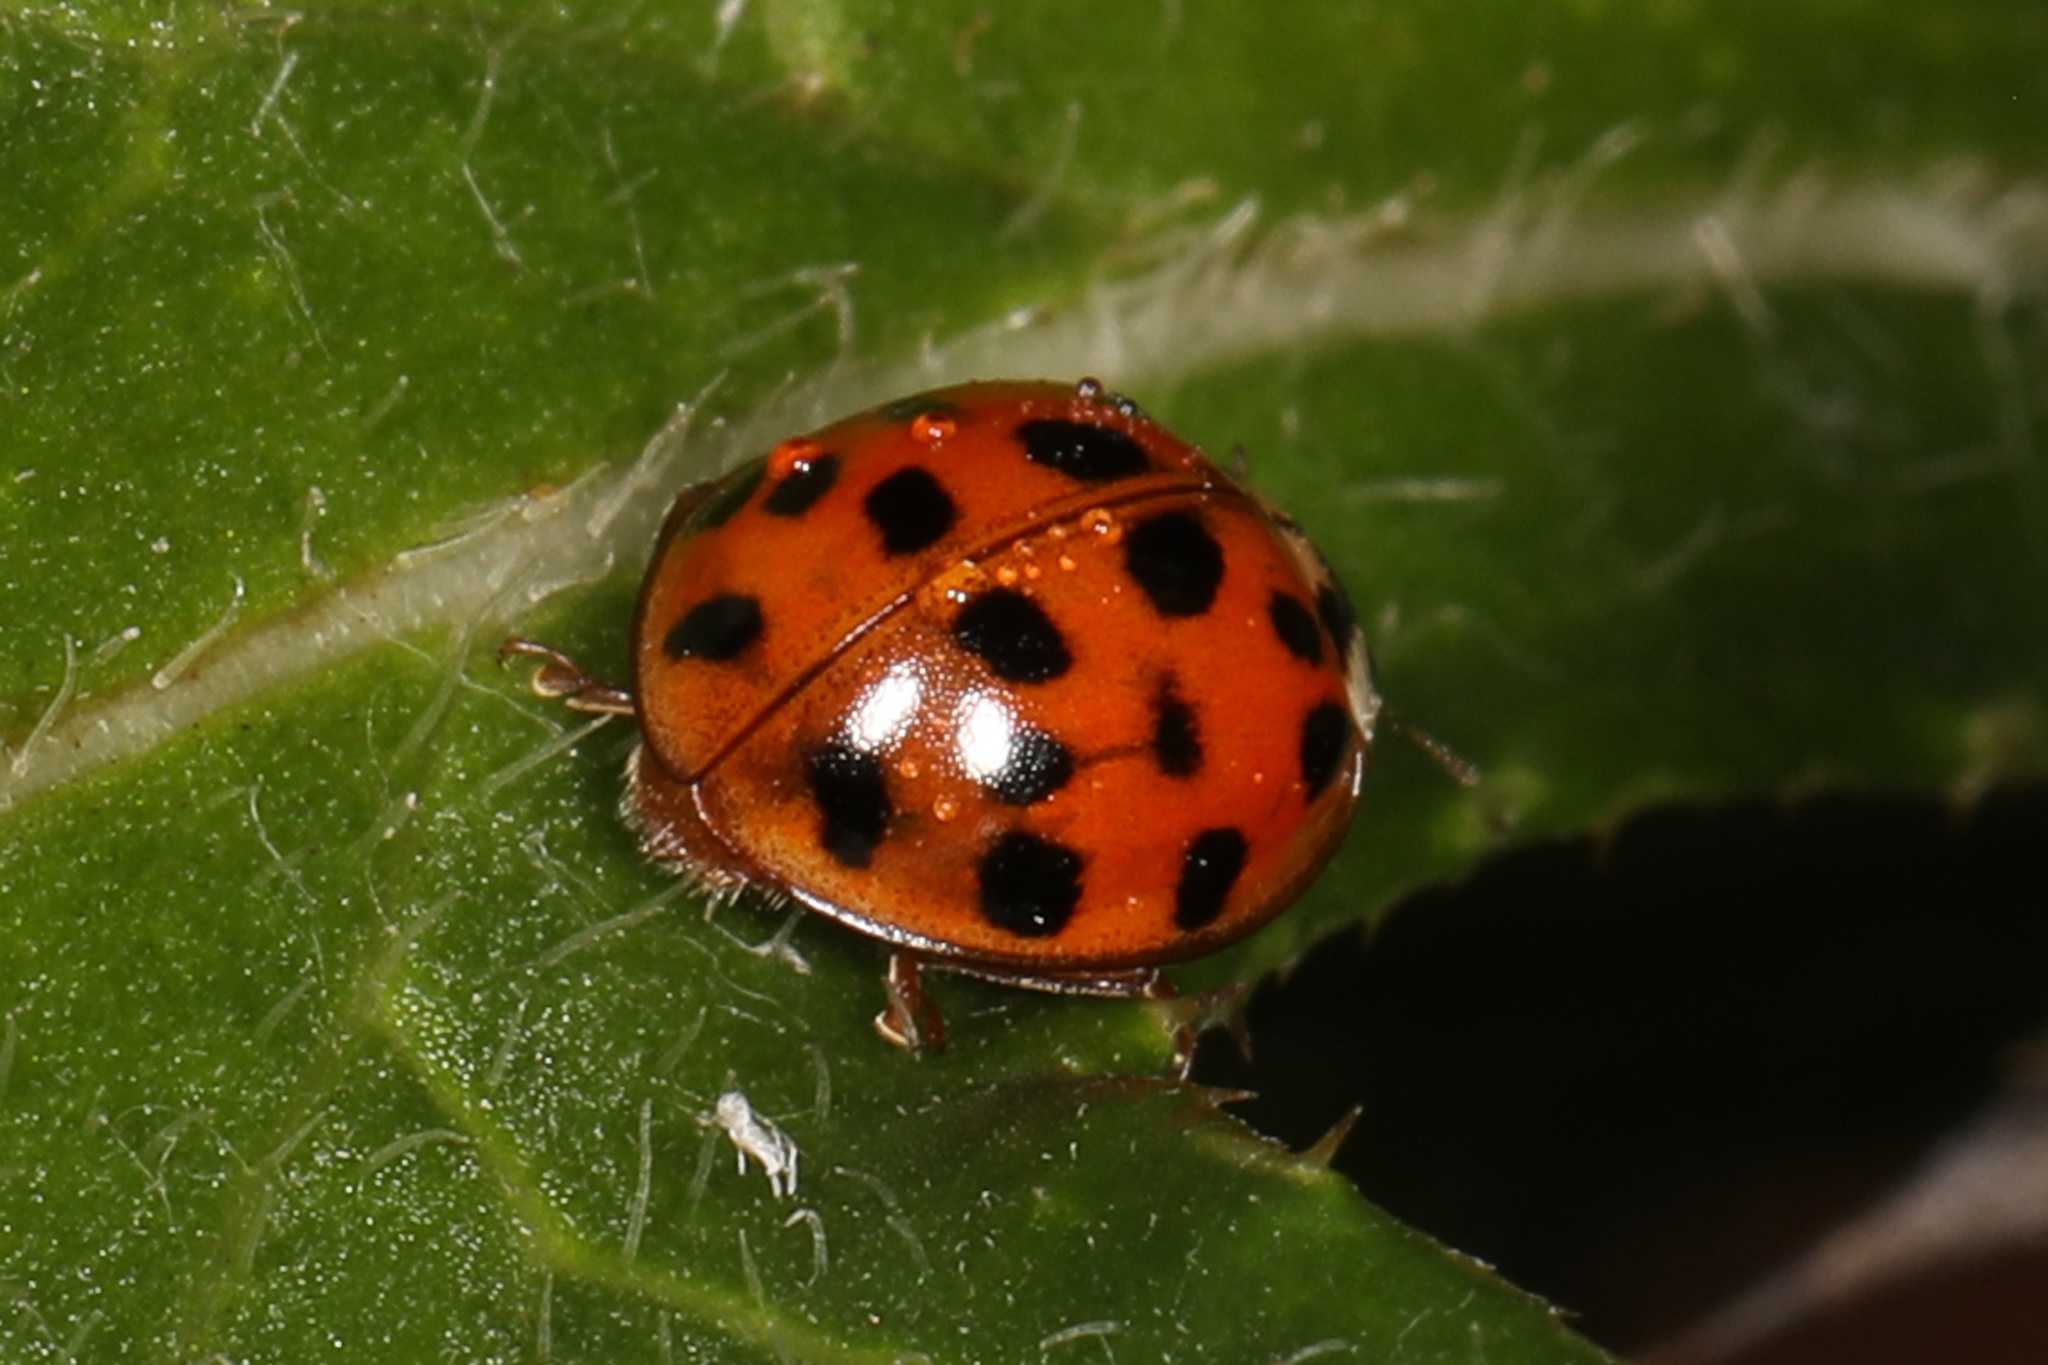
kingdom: Animalia
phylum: Arthropoda
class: Insecta
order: Coleoptera
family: Coccinellidae
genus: Harmonia
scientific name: Harmonia axyridis
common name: Harlequin ladybird
